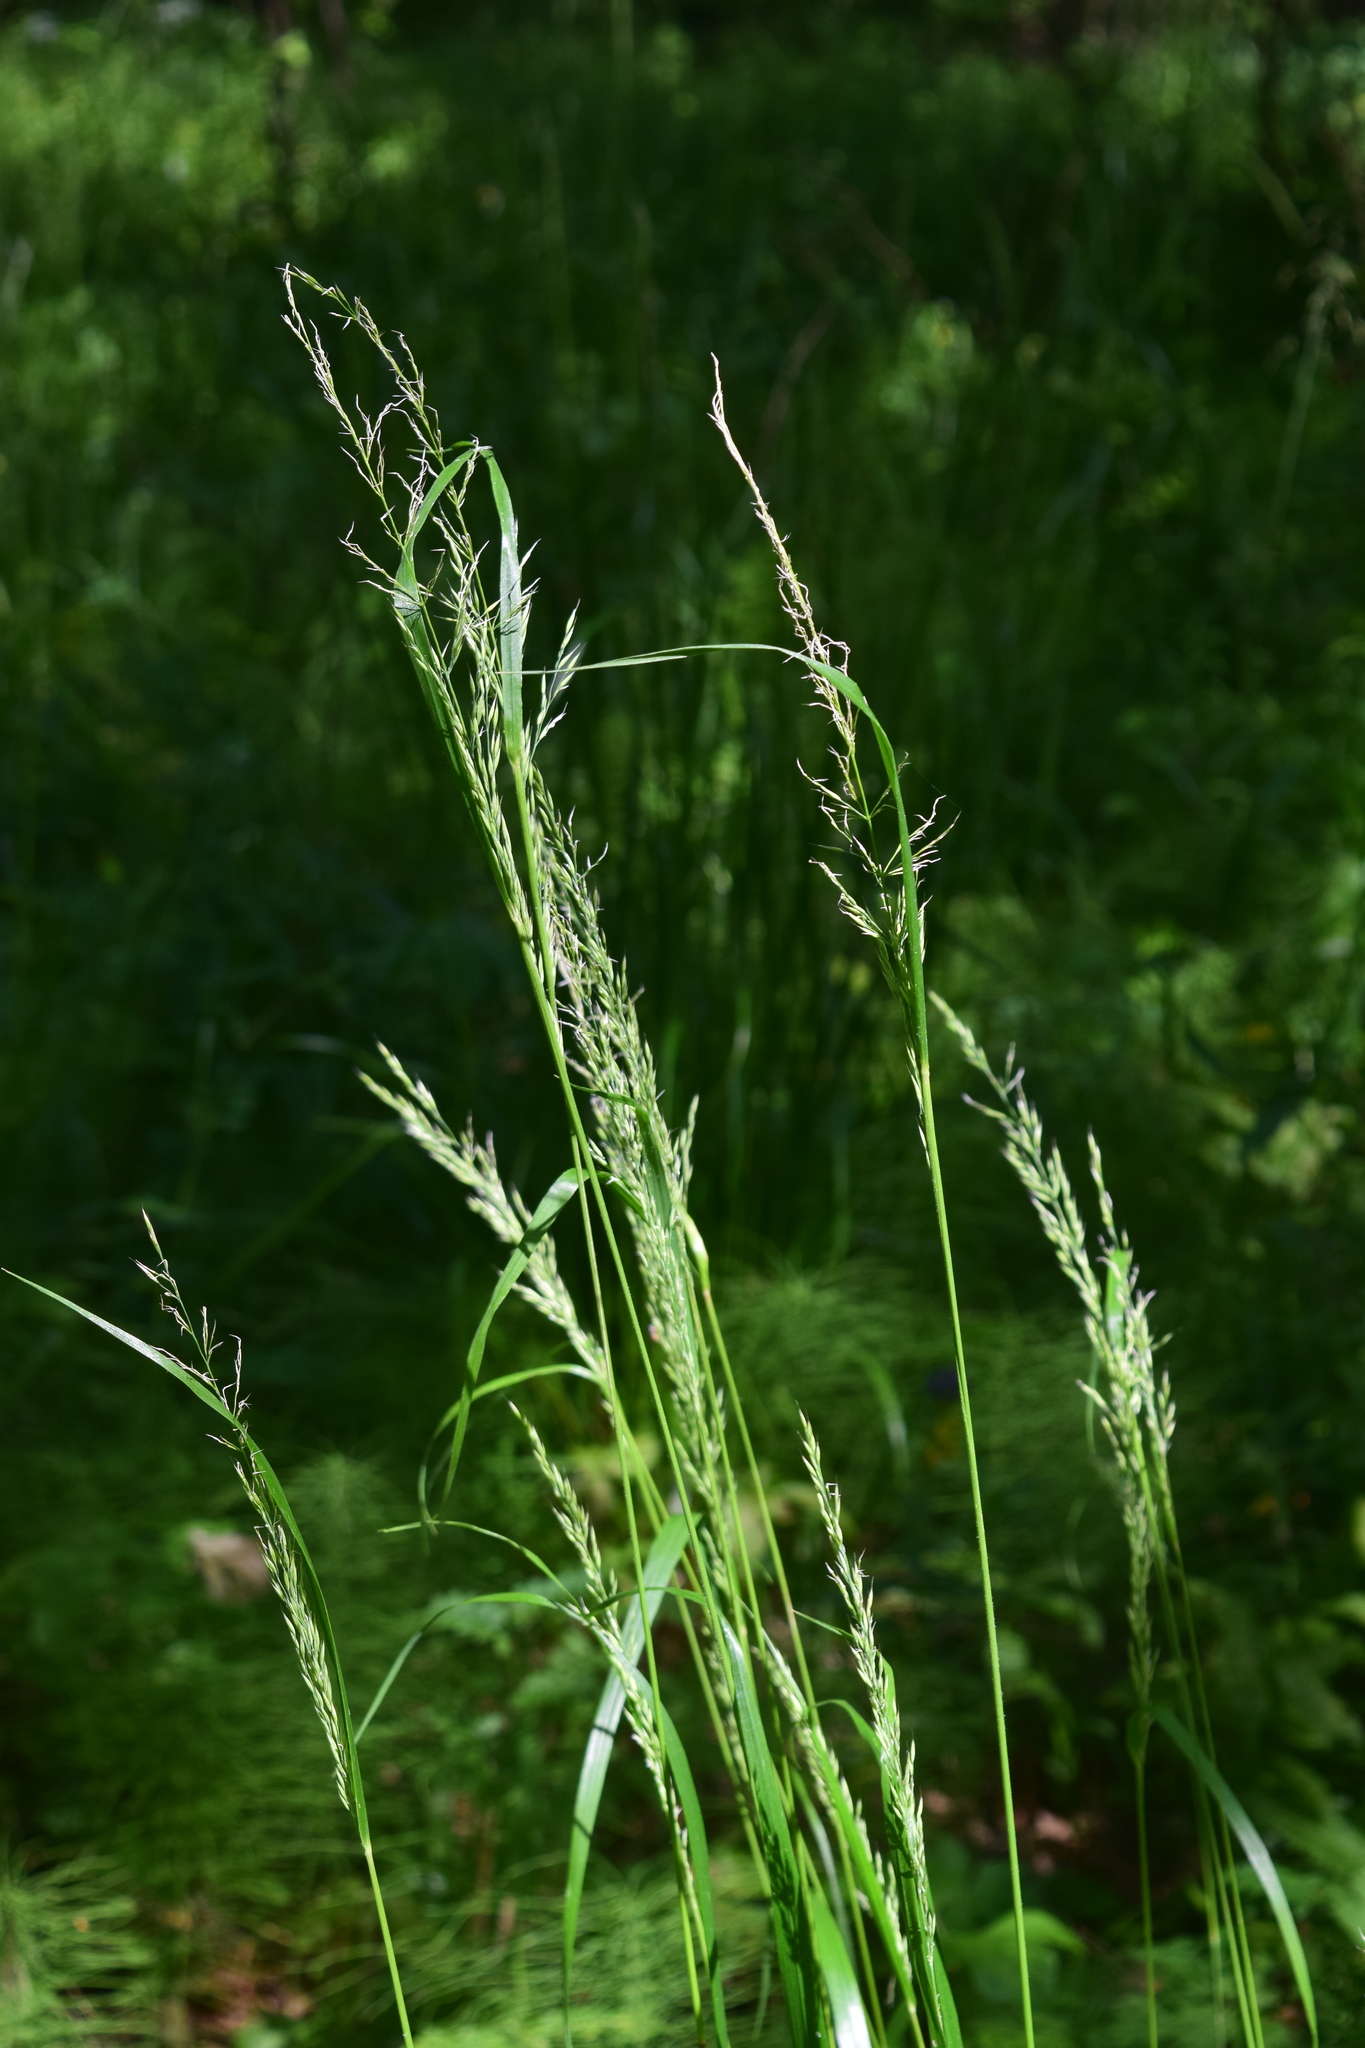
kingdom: Plantae
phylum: Tracheophyta
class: Liliopsida
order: Poales
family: Poaceae
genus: Calamagrostis
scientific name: Calamagrostis arundinacea
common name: Metskastik
